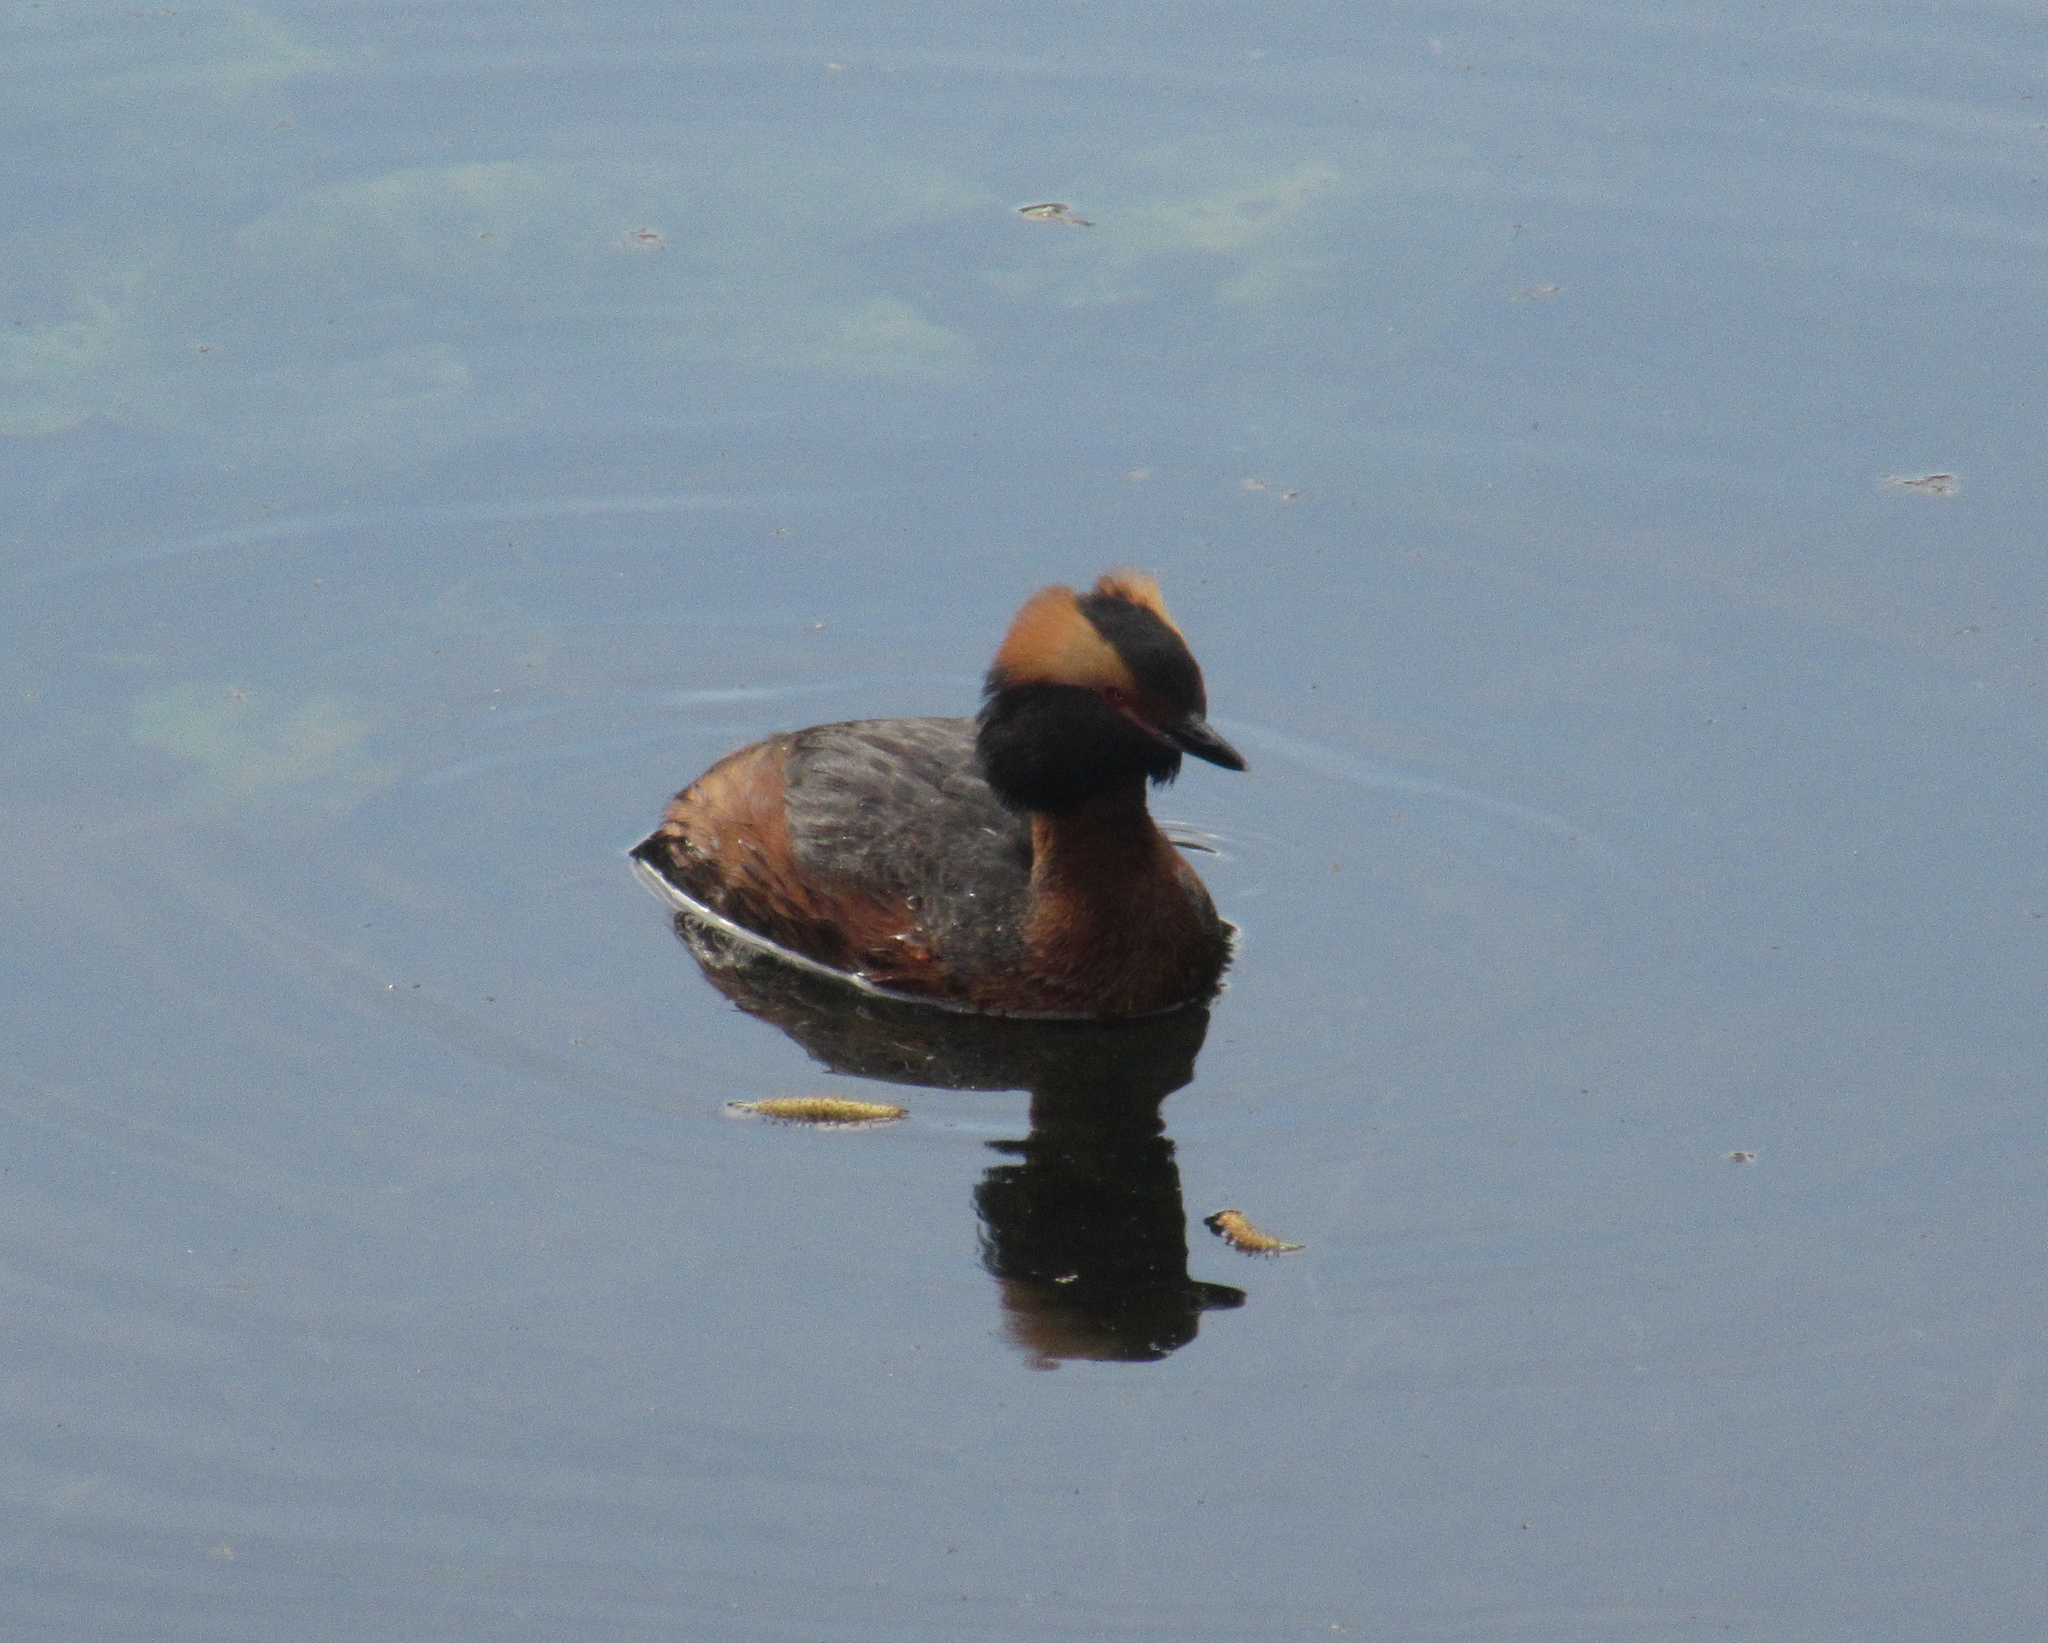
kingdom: Animalia
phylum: Chordata
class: Aves
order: Podicipediformes
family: Podicipedidae
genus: Podiceps
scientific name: Podiceps auritus
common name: Horned grebe
